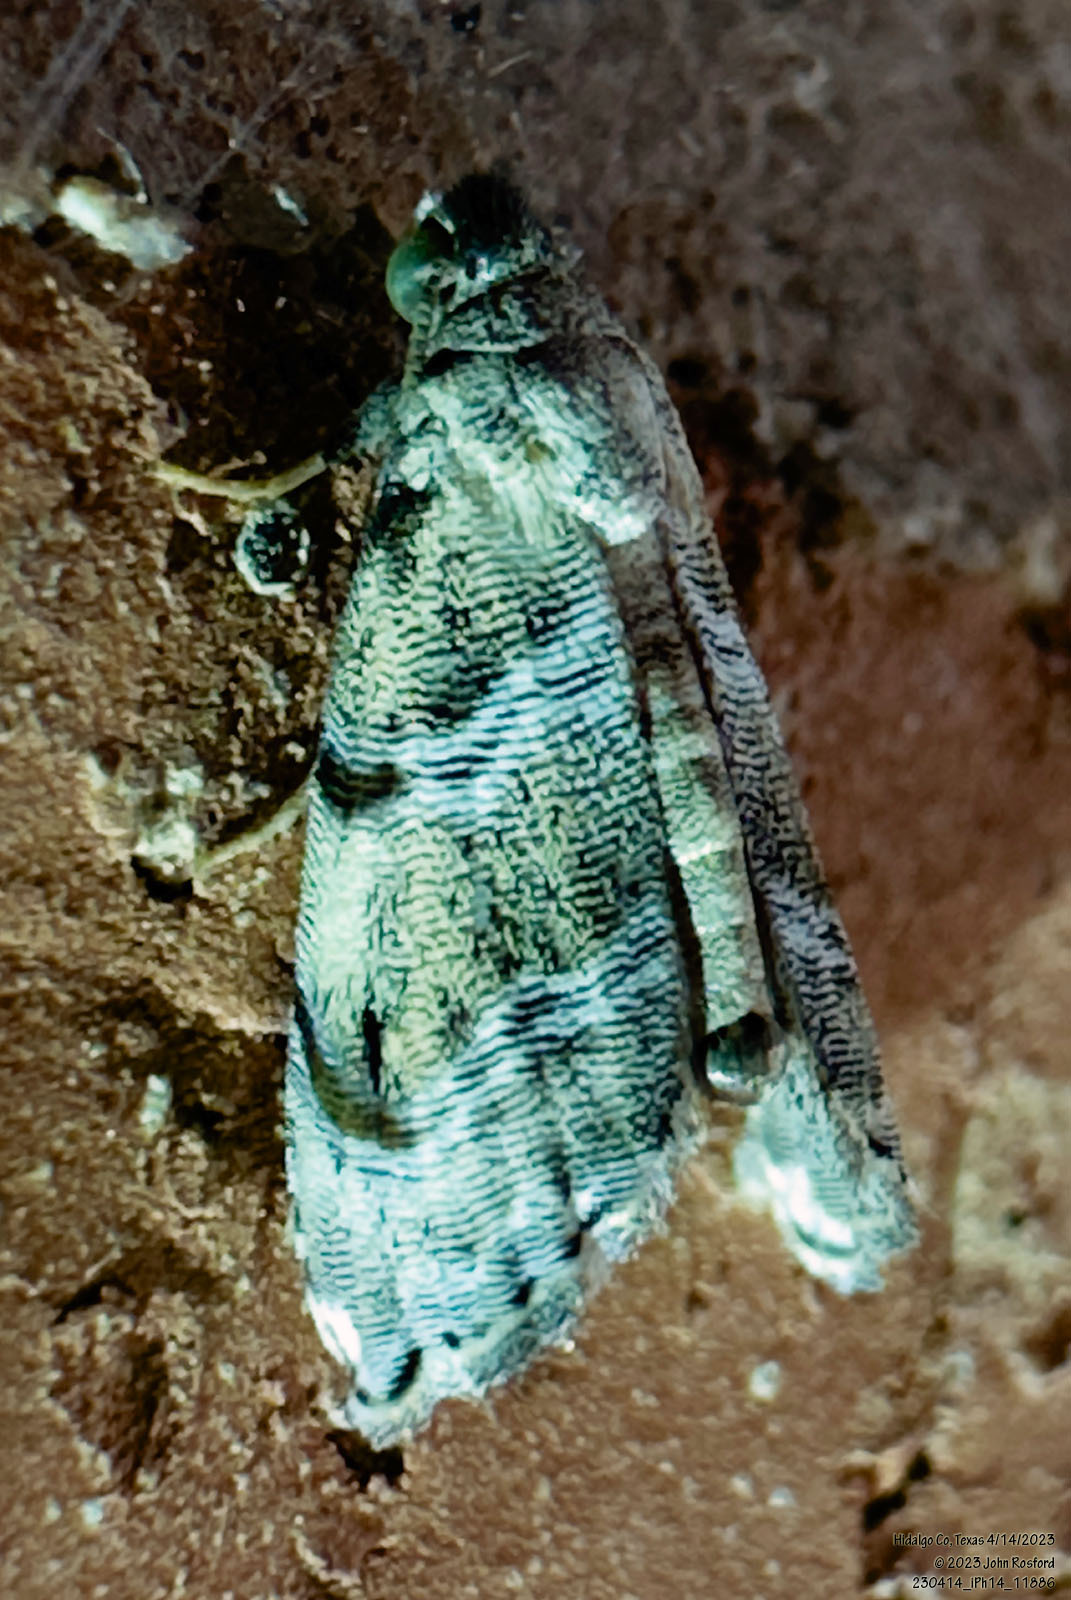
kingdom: Animalia
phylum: Arthropoda
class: Insecta
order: Lepidoptera
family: Noctuidae
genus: Abablemma
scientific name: Abablemma bilineata
